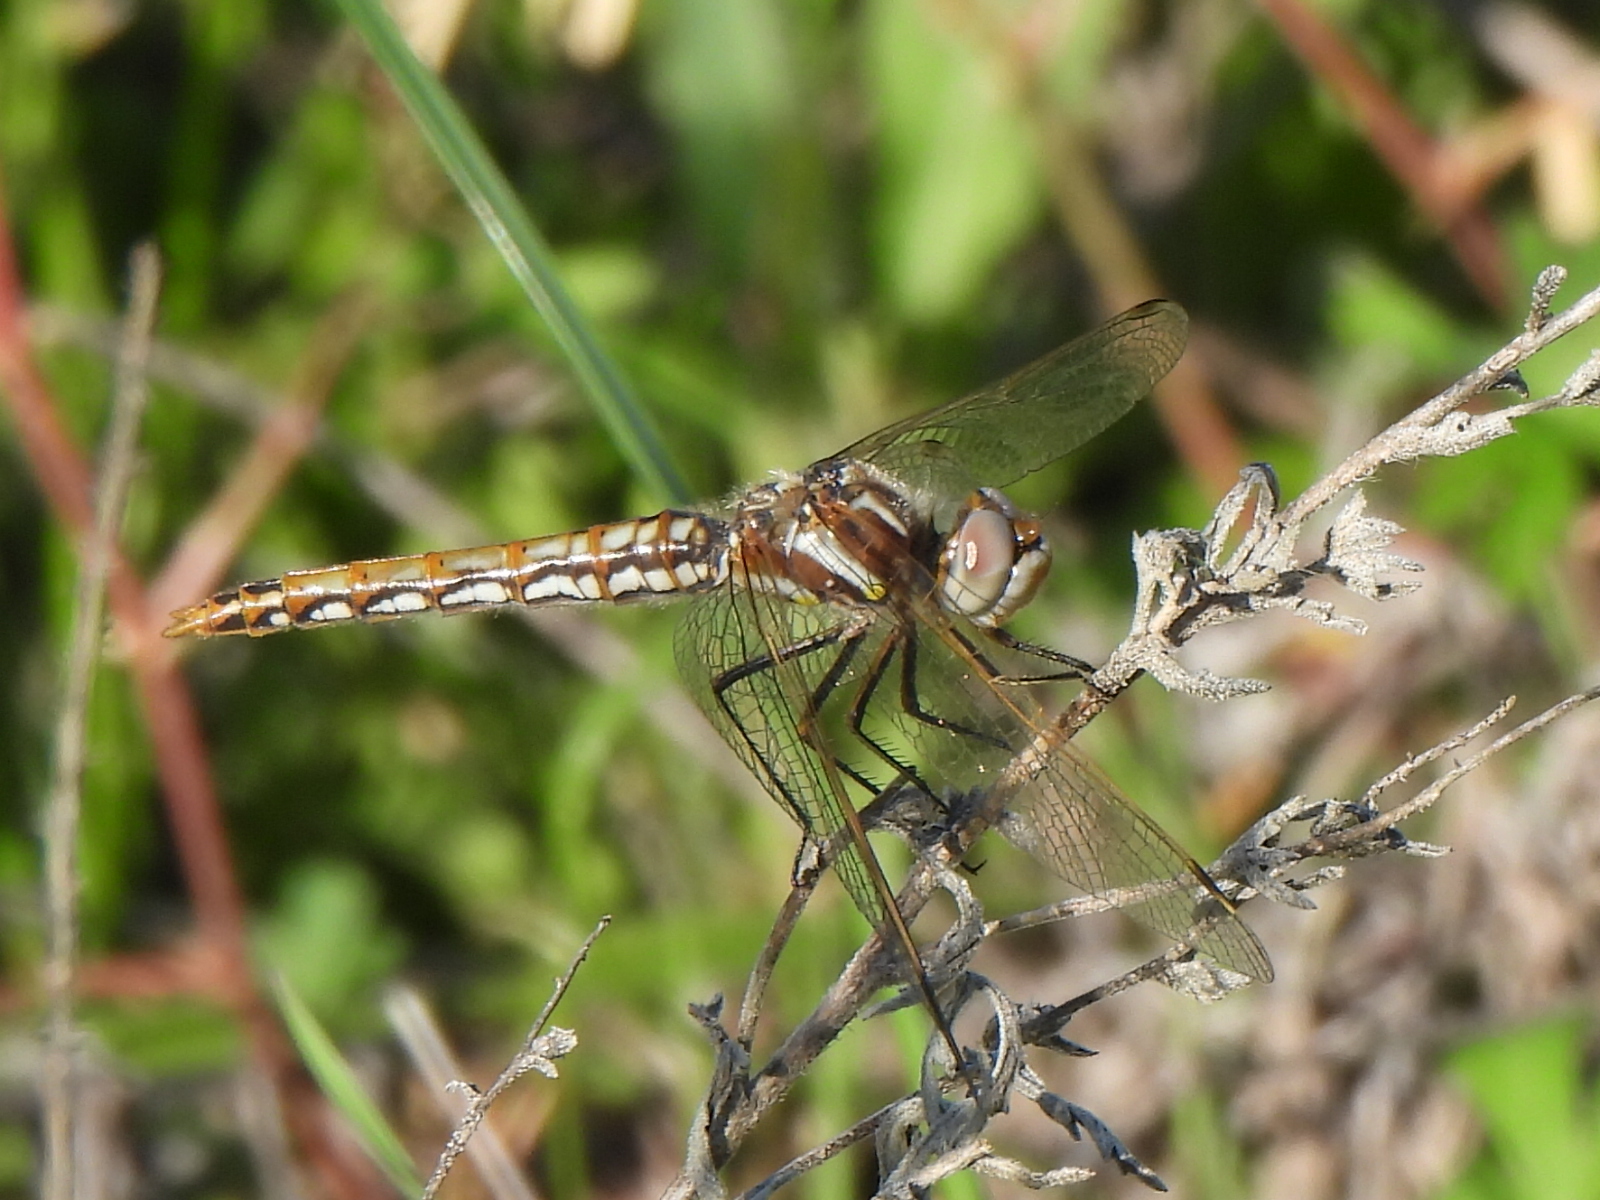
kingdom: Animalia
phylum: Arthropoda
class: Insecta
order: Odonata
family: Libellulidae
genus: Sympetrum
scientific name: Sympetrum corruptum
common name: Variegated meadowhawk
